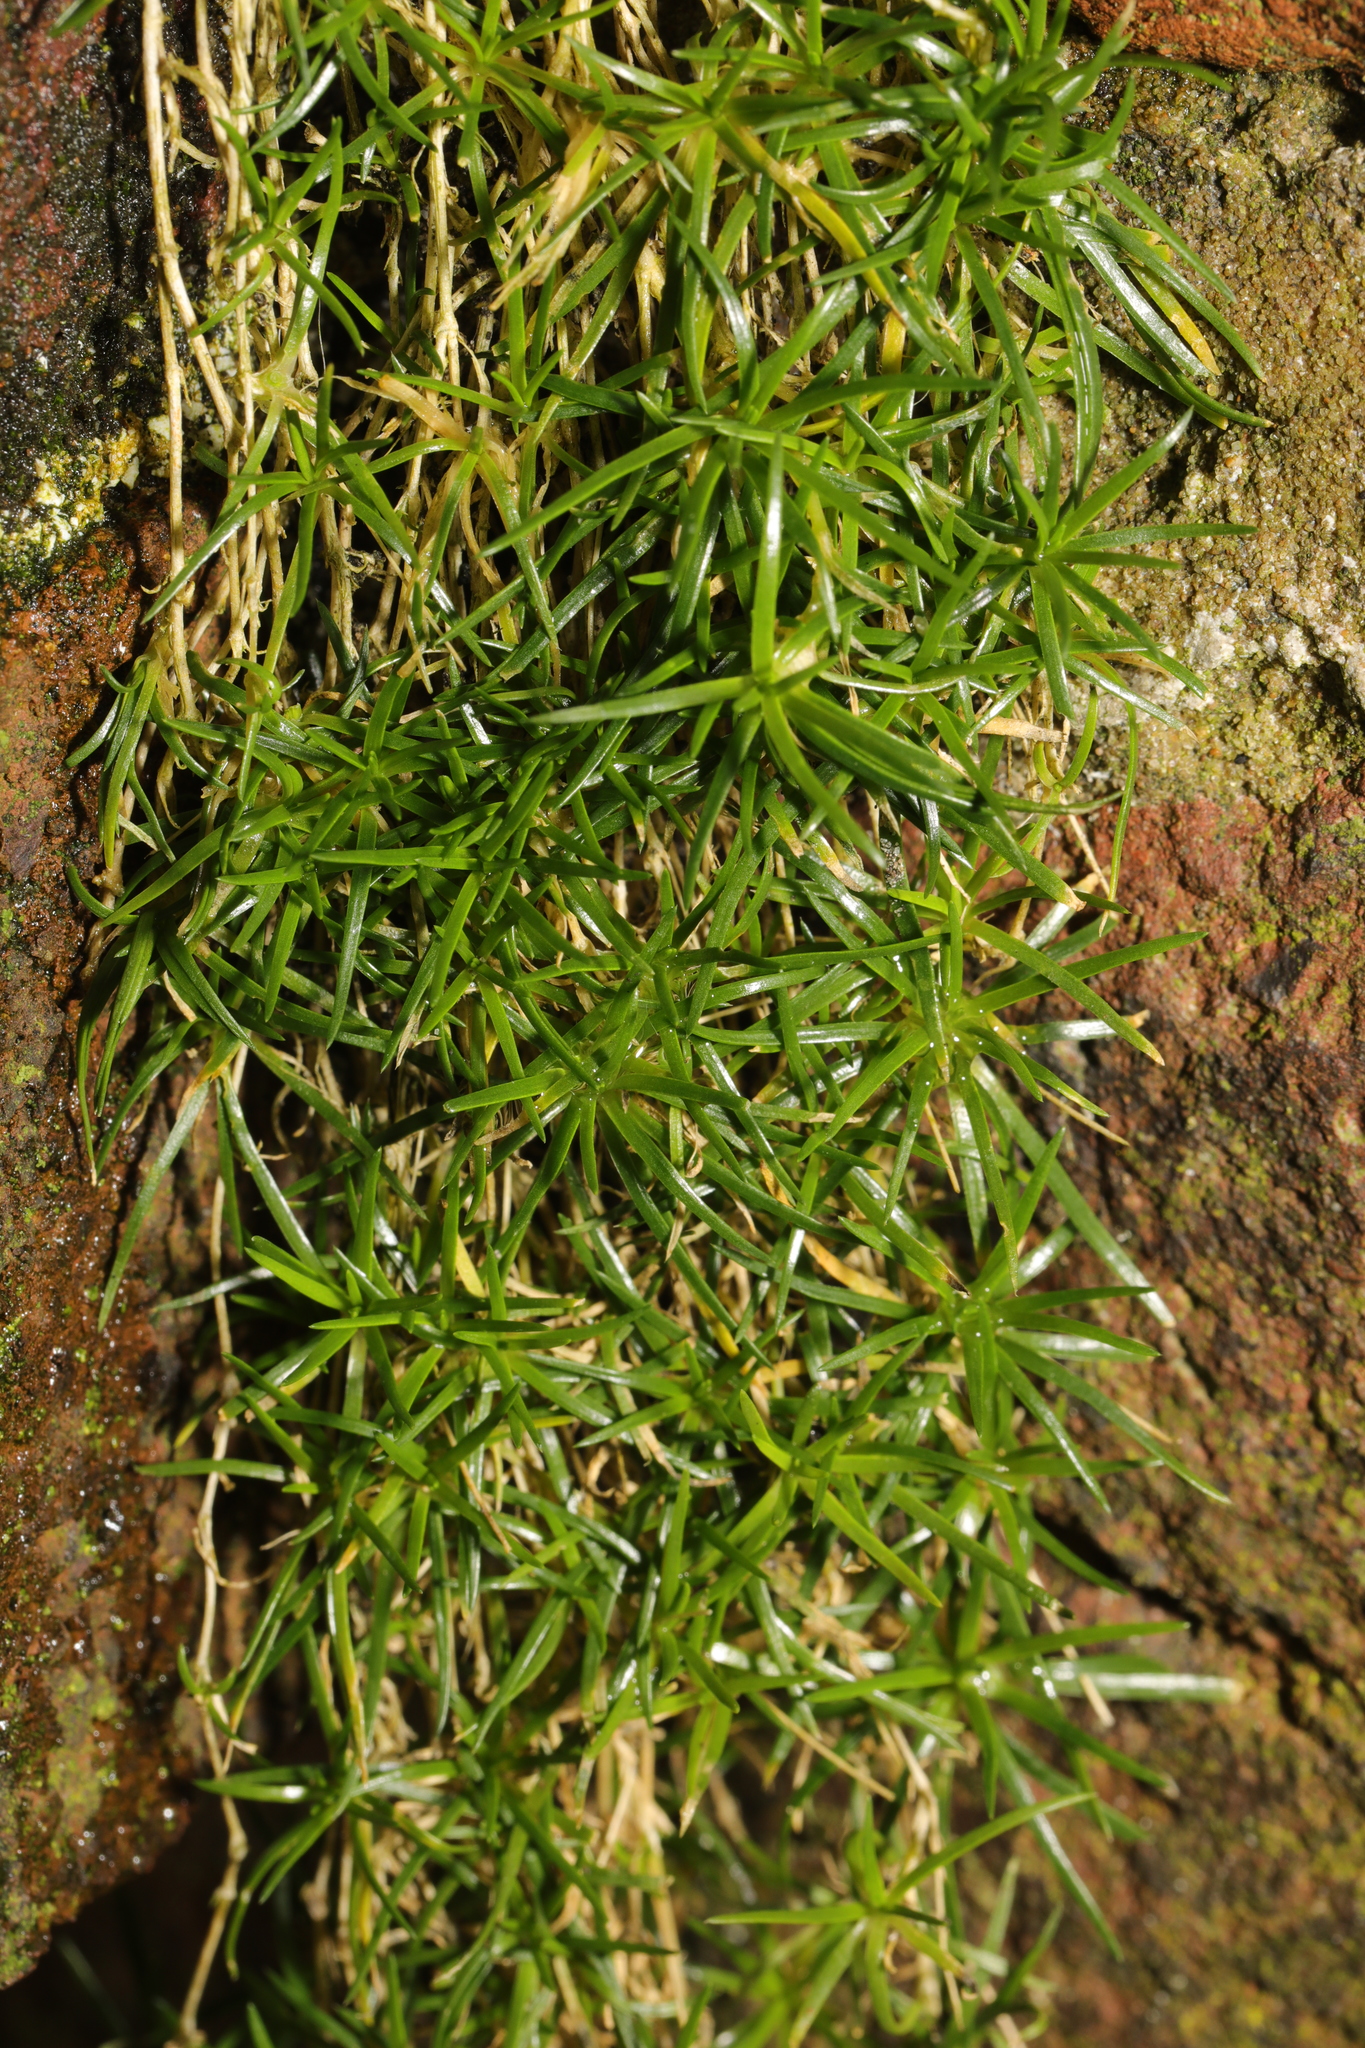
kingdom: Plantae
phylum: Tracheophyta
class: Magnoliopsida
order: Caryophyllales
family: Caryophyllaceae
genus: Sagina
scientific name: Sagina procumbens
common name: Procumbent pearlwort
